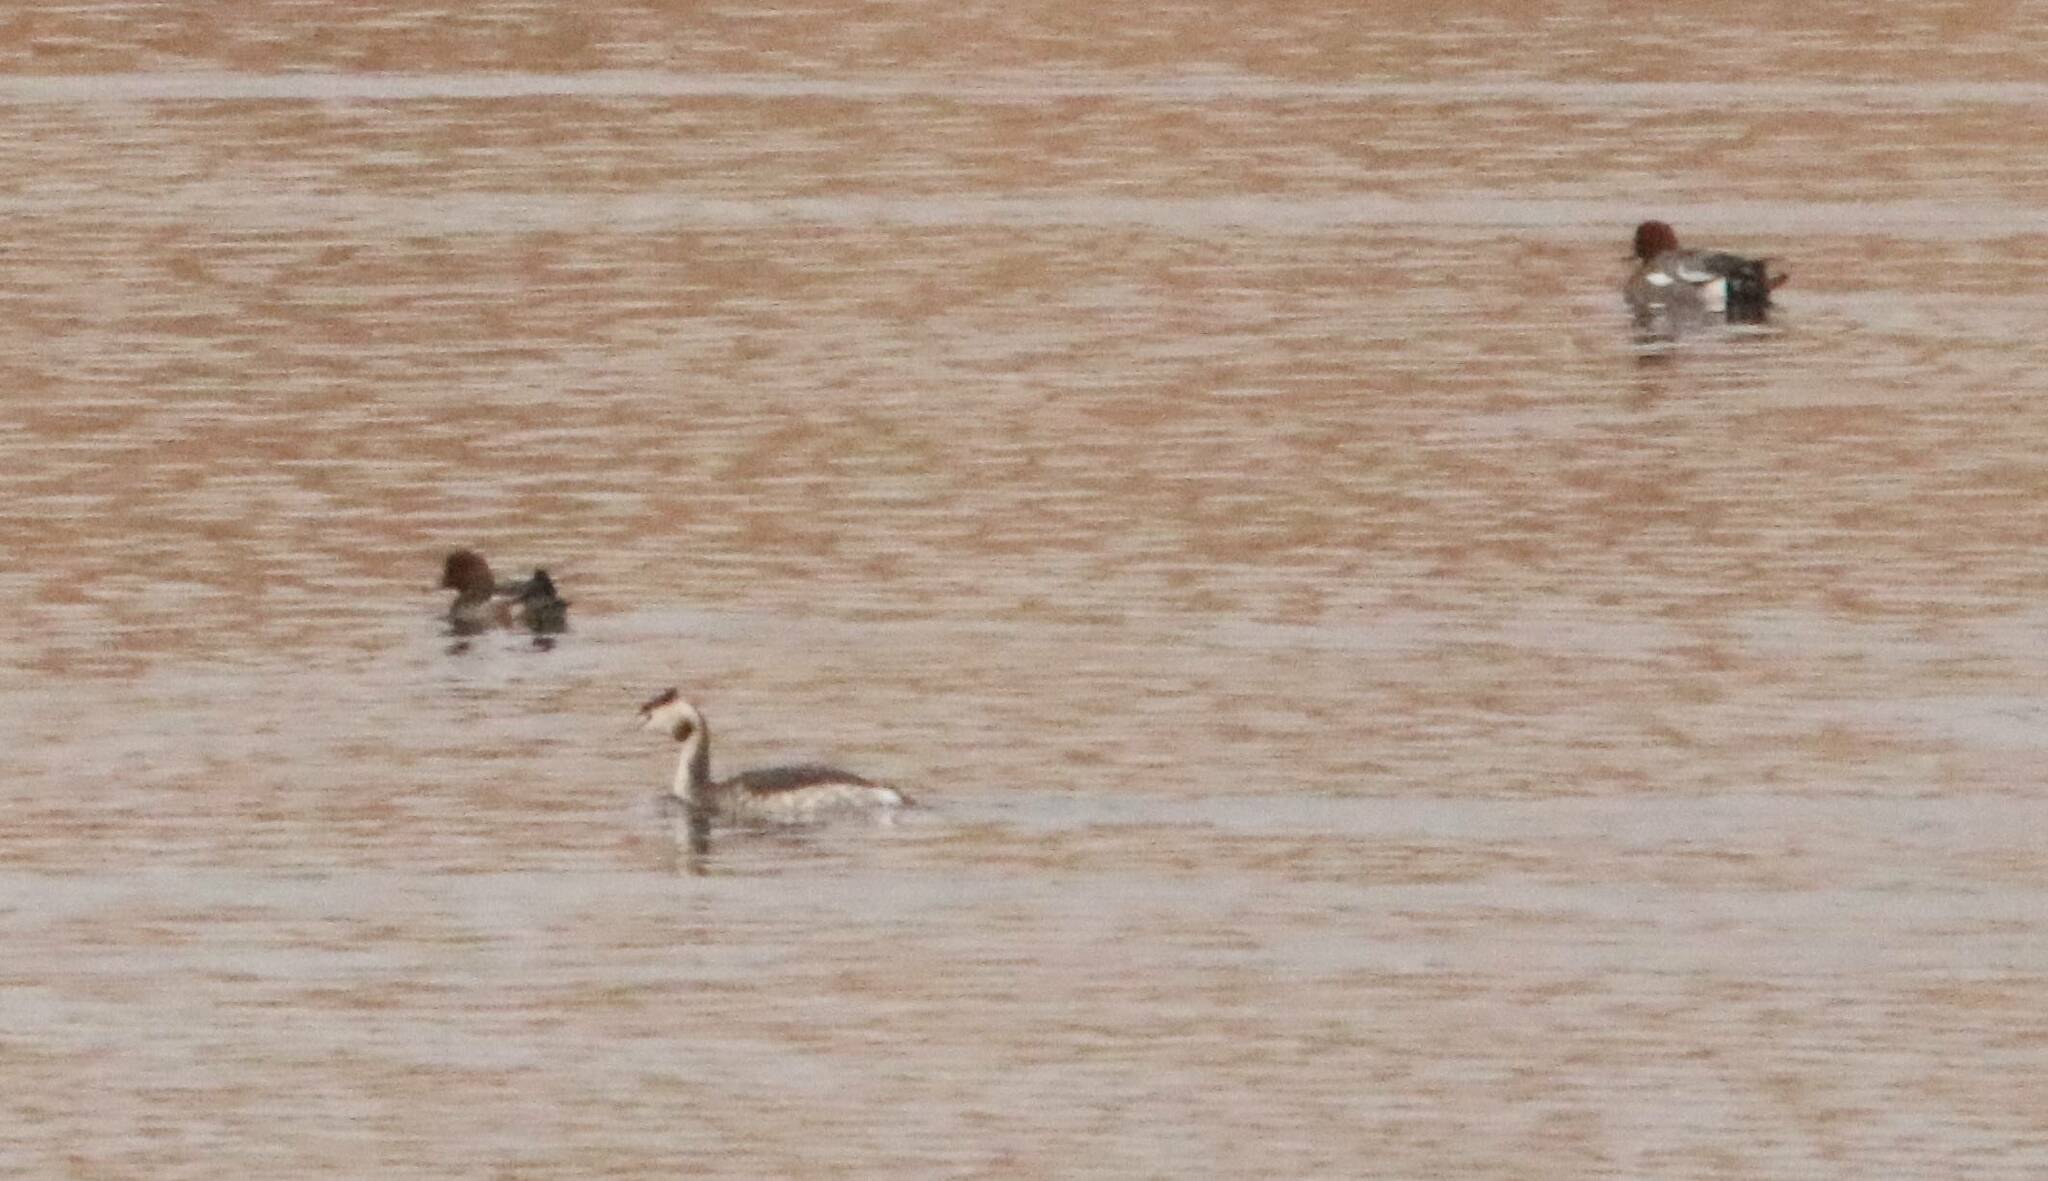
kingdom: Animalia
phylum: Chordata
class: Aves
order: Podicipediformes
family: Podicipedidae
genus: Podiceps
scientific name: Podiceps cristatus
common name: Great crested grebe
